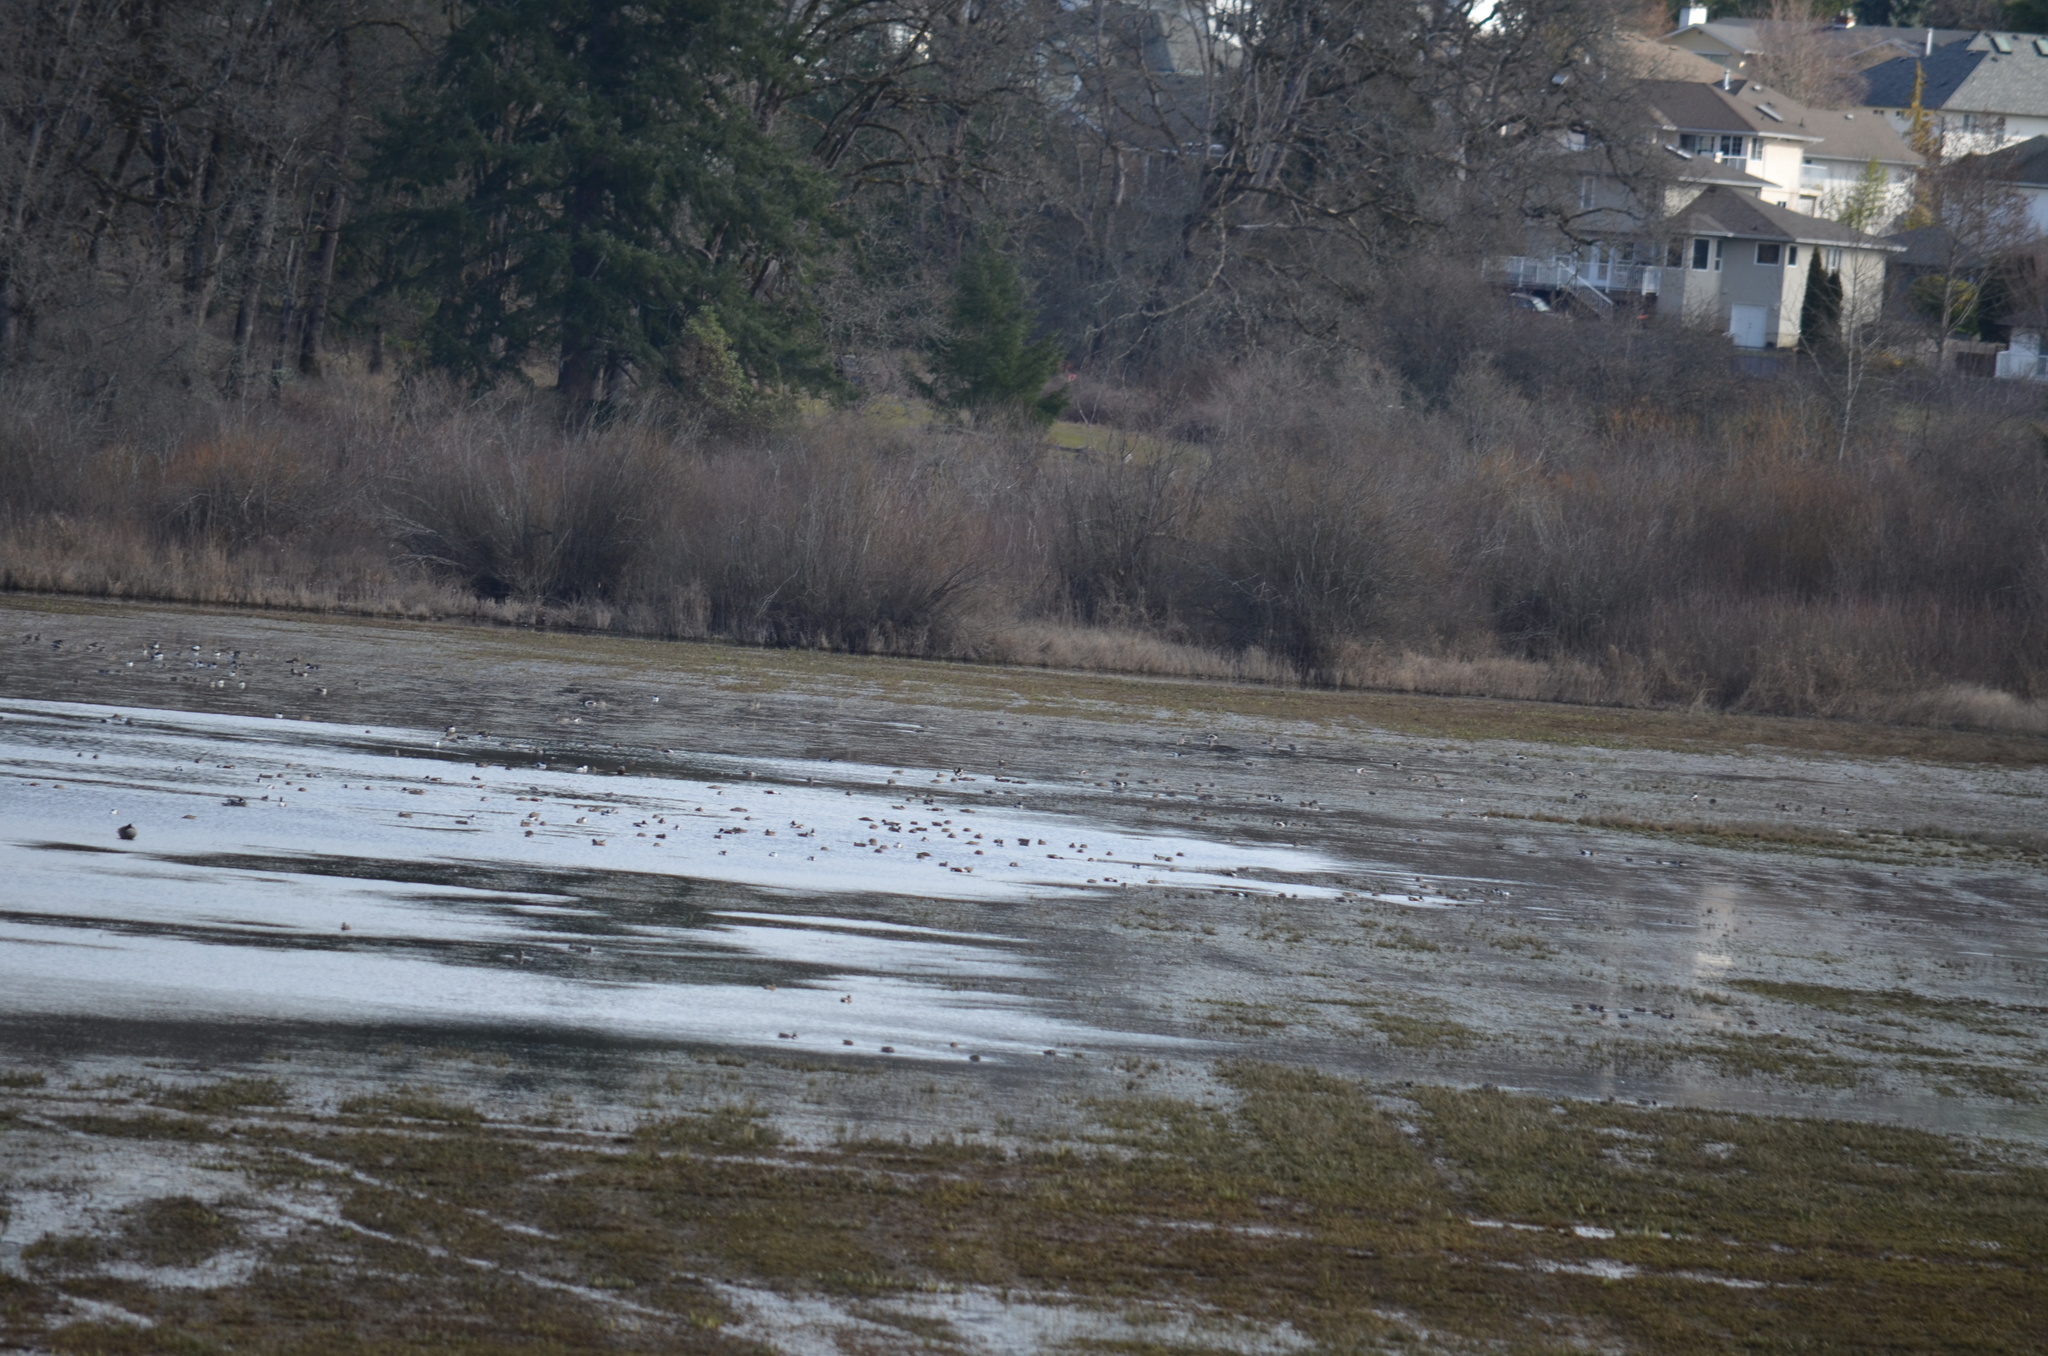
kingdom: Animalia
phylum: Chordata
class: Aves
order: Anseriformes
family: Anatidae
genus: Spatula
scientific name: Spatula clypeata
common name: Northern shoveler
